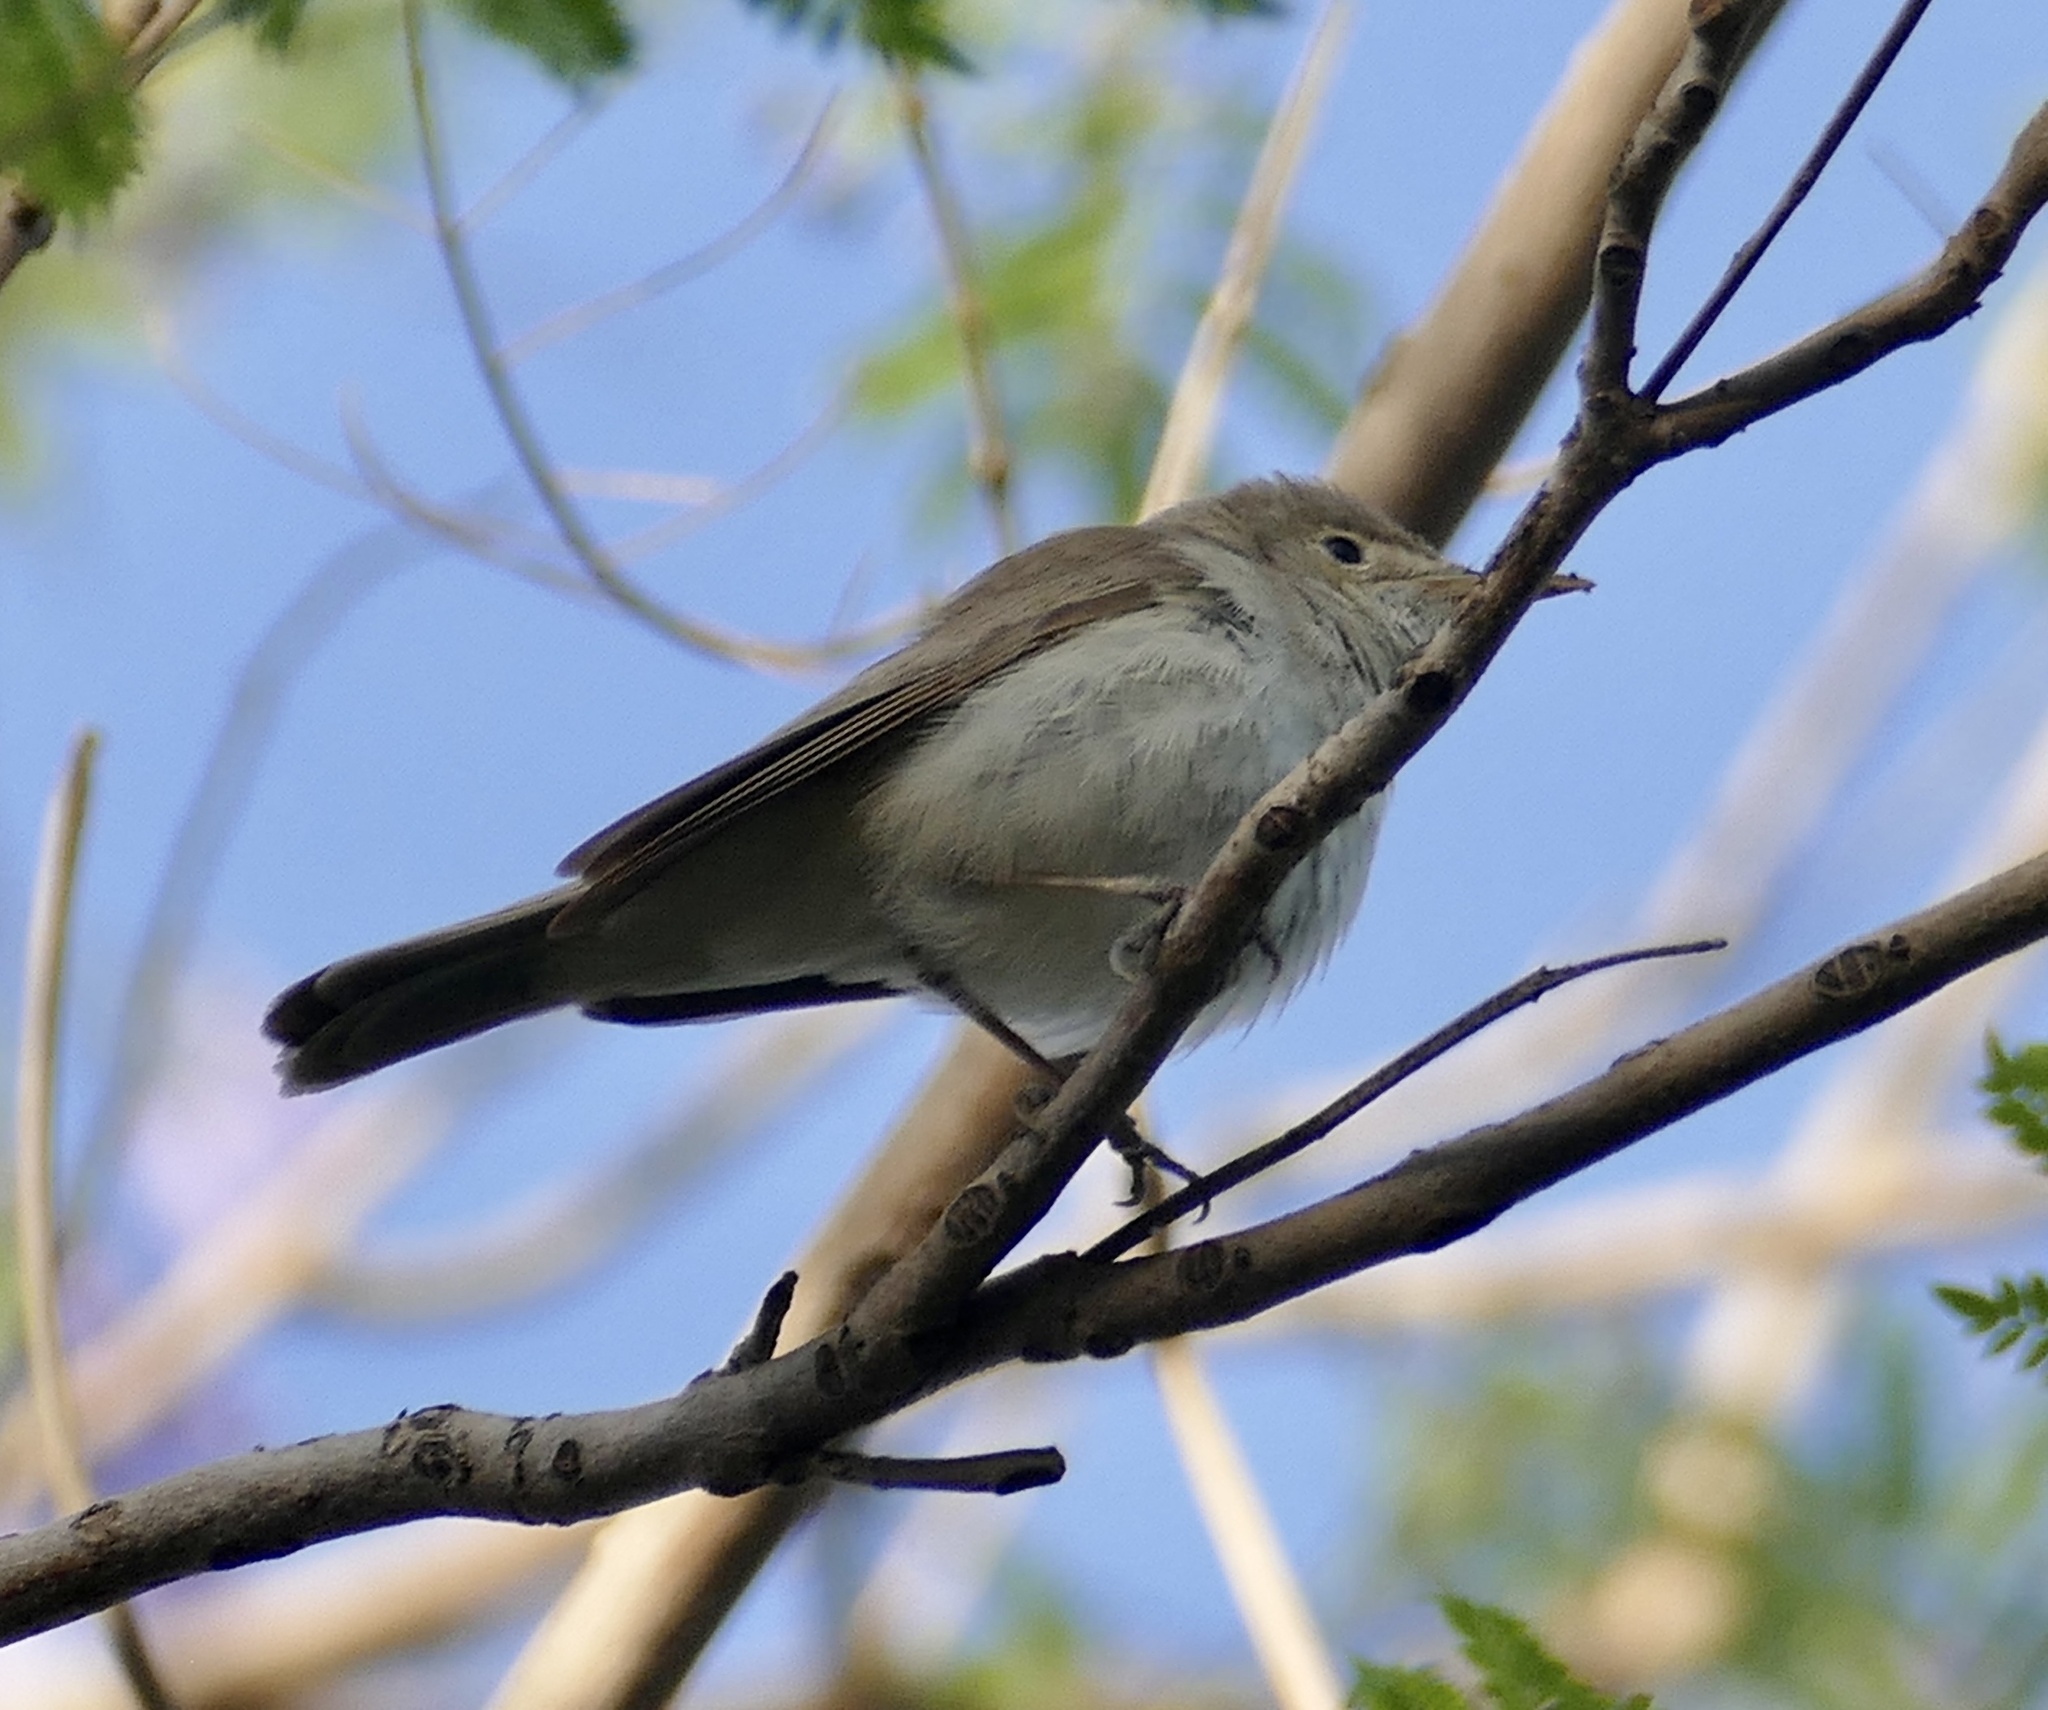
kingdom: Animalia
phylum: Chordata
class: Aves
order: Passeriformes
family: Acrocephalidae
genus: Iduna
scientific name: Iduna opaca
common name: Western olivaceous warbler
